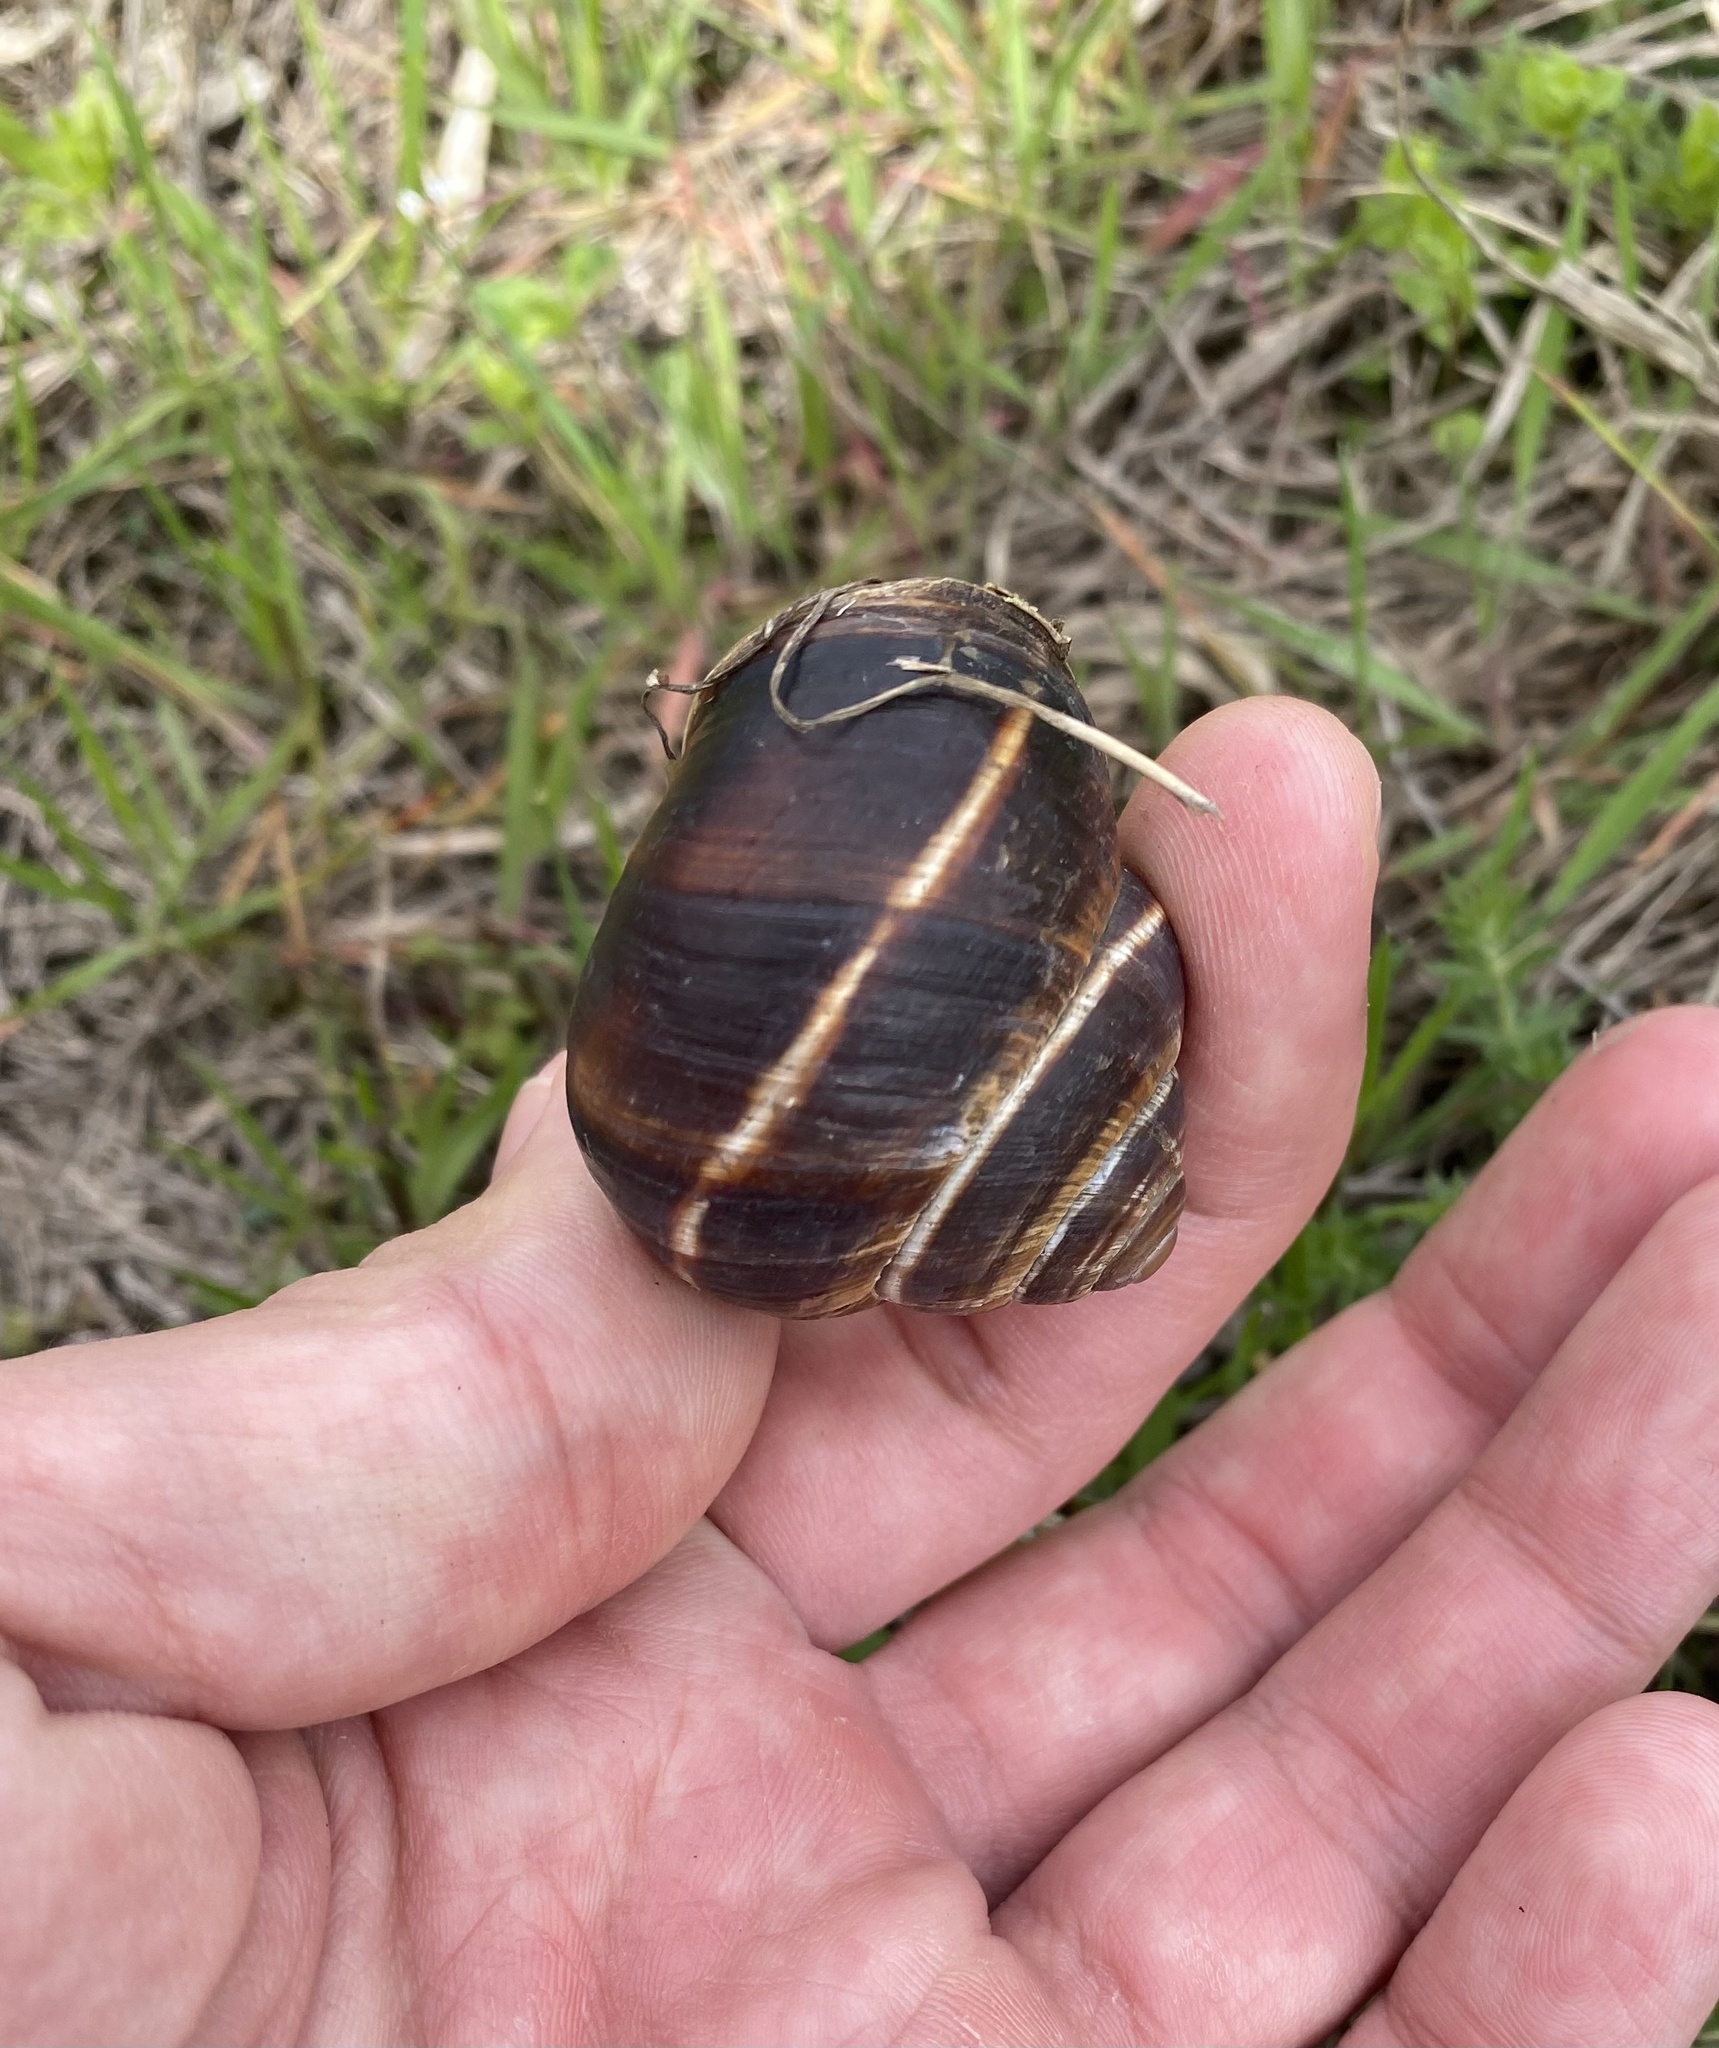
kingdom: Animalia
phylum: Mollusca
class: Gastropoda
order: Stylommatophora
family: Helicidae
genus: Helix
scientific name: Helix lucorum
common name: Turkish snail
